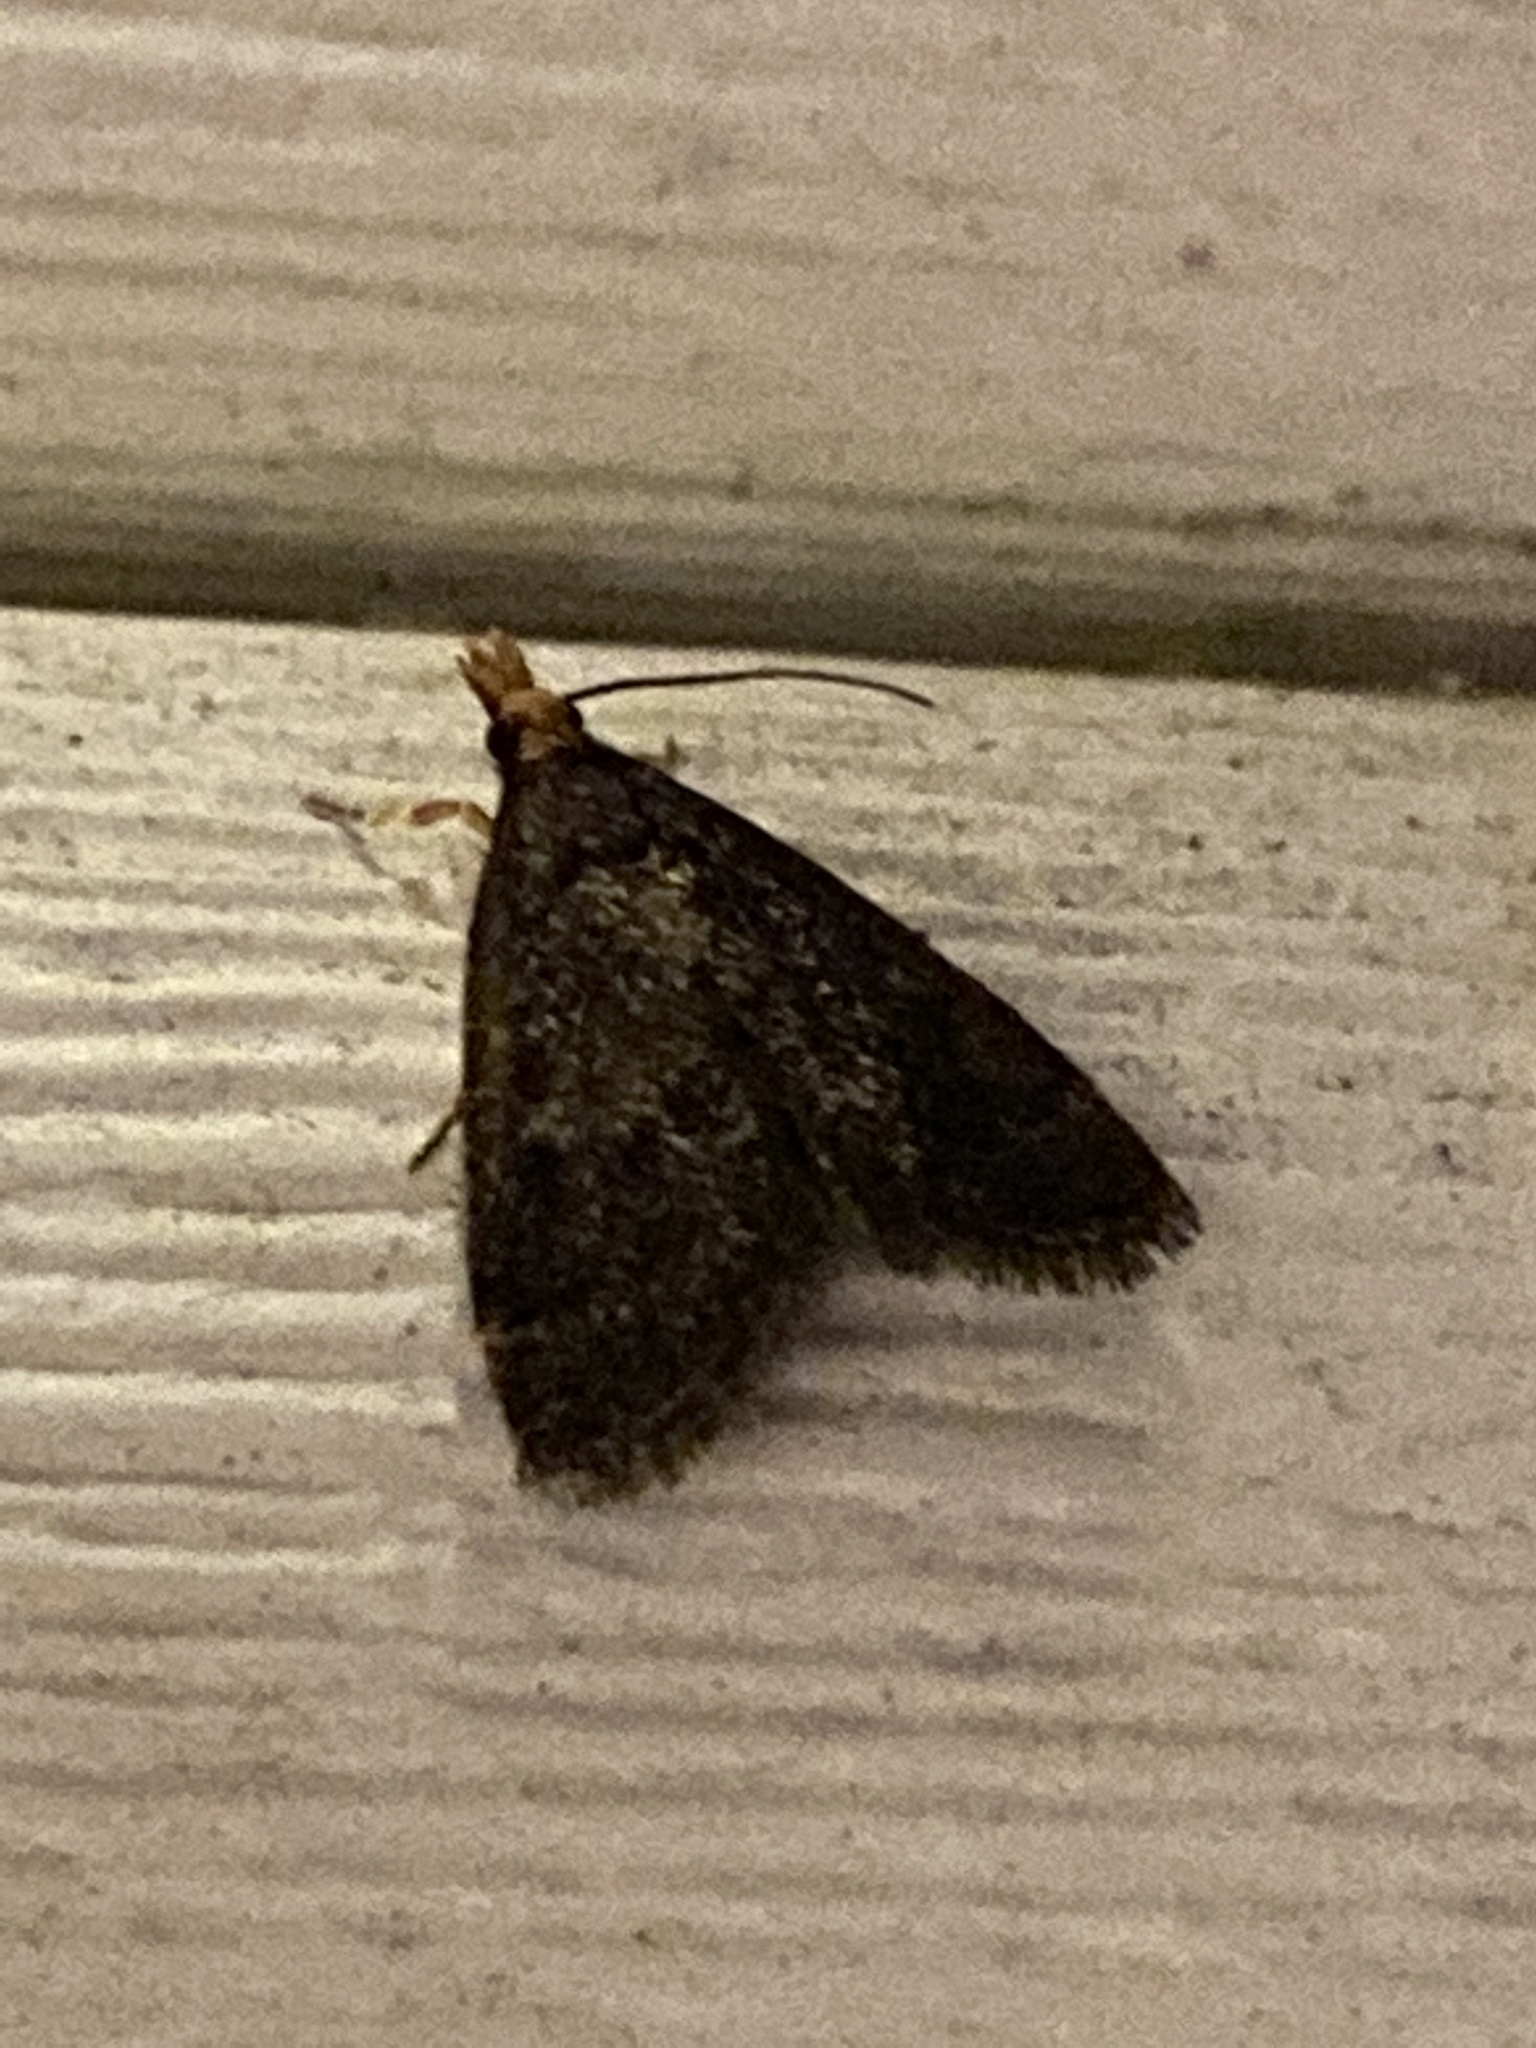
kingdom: Animalia
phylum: Arthropoda
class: Insecta
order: Lepidoptera
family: Crambidae
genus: Pyrausta
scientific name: Pyrausta merrickalis
